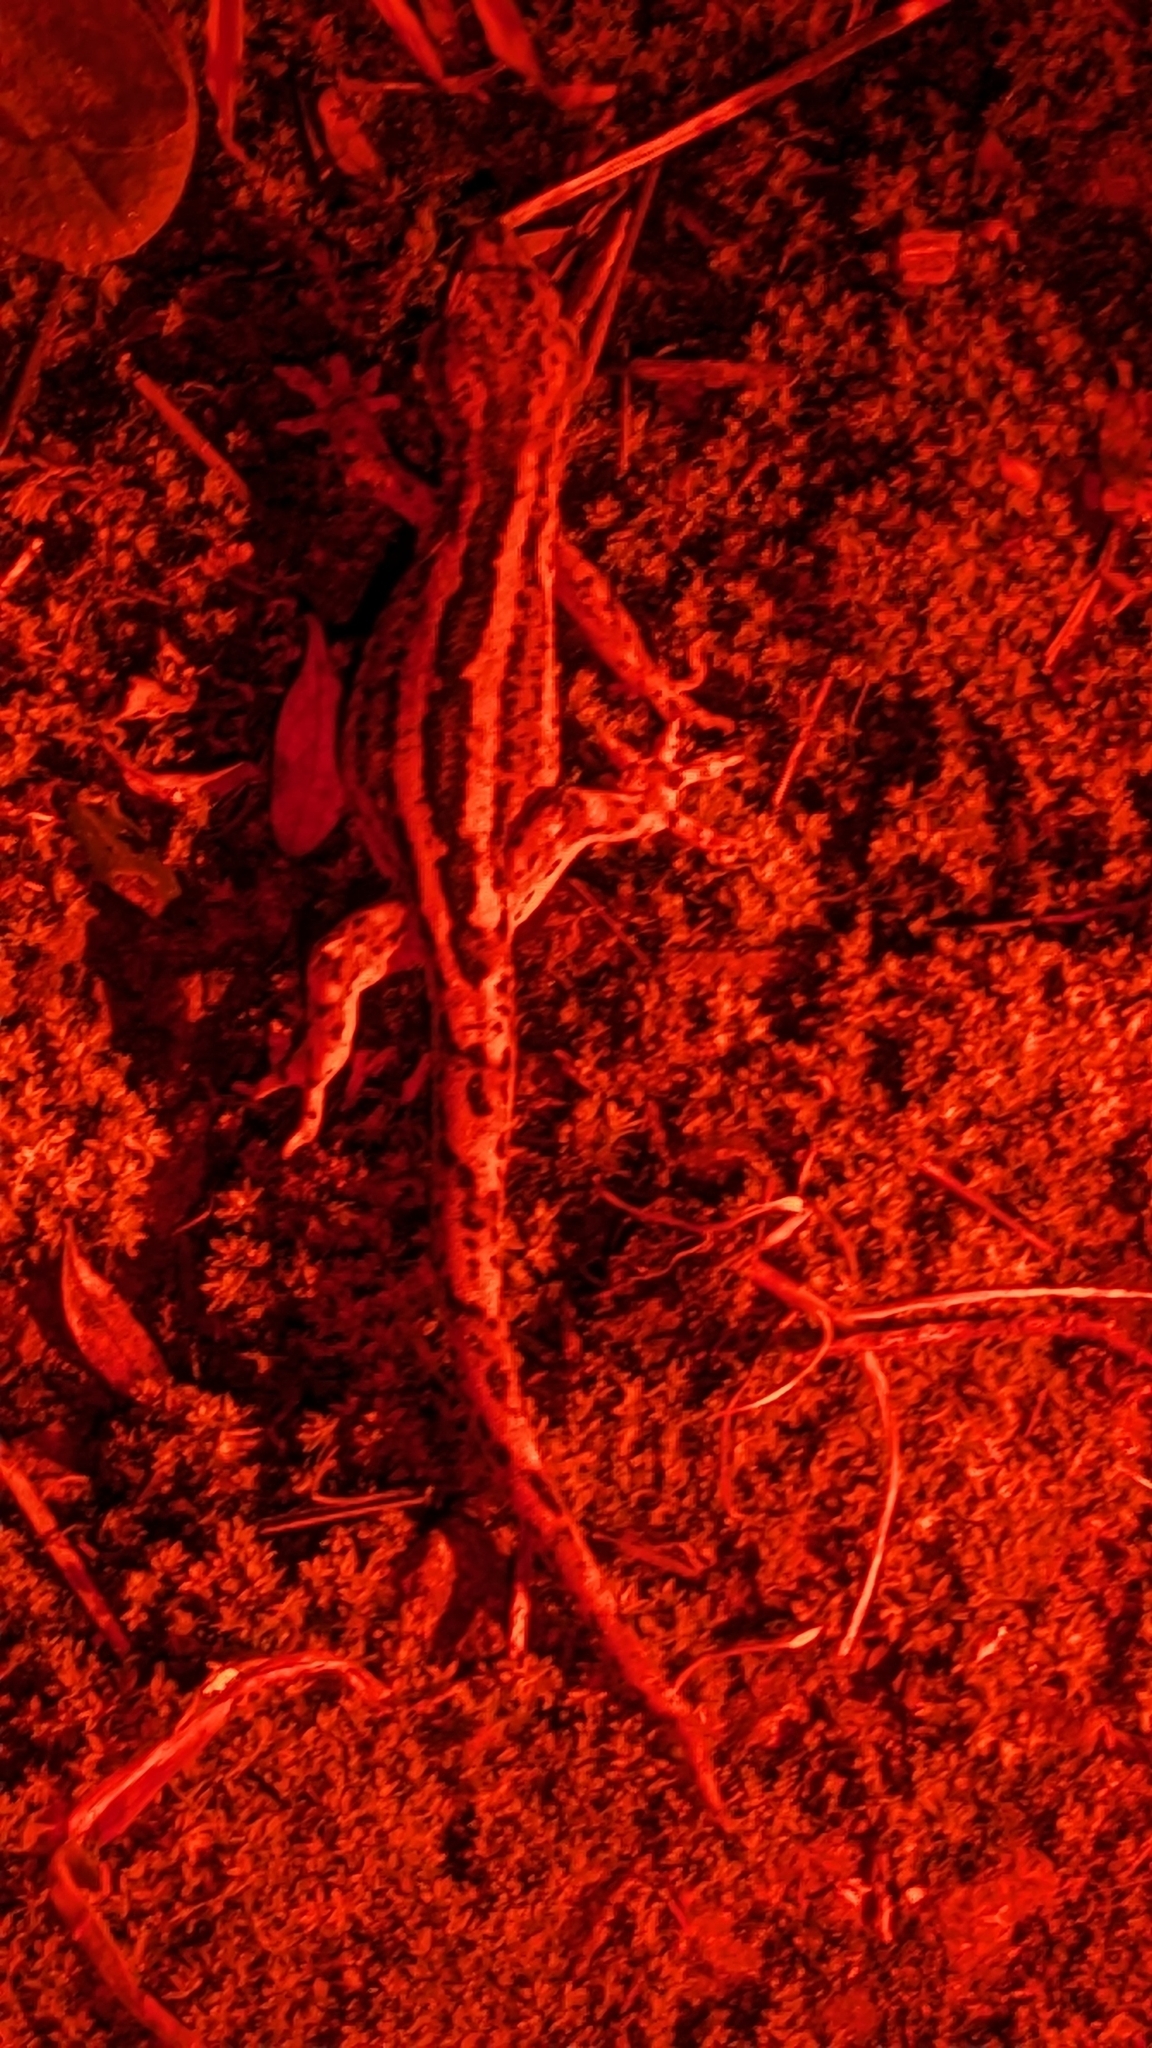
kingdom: Animalia
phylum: Chordata
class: Squamata
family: Diplodactylidae
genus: Woodworthia
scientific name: Woodworthia maculata
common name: Raukawa gecko
